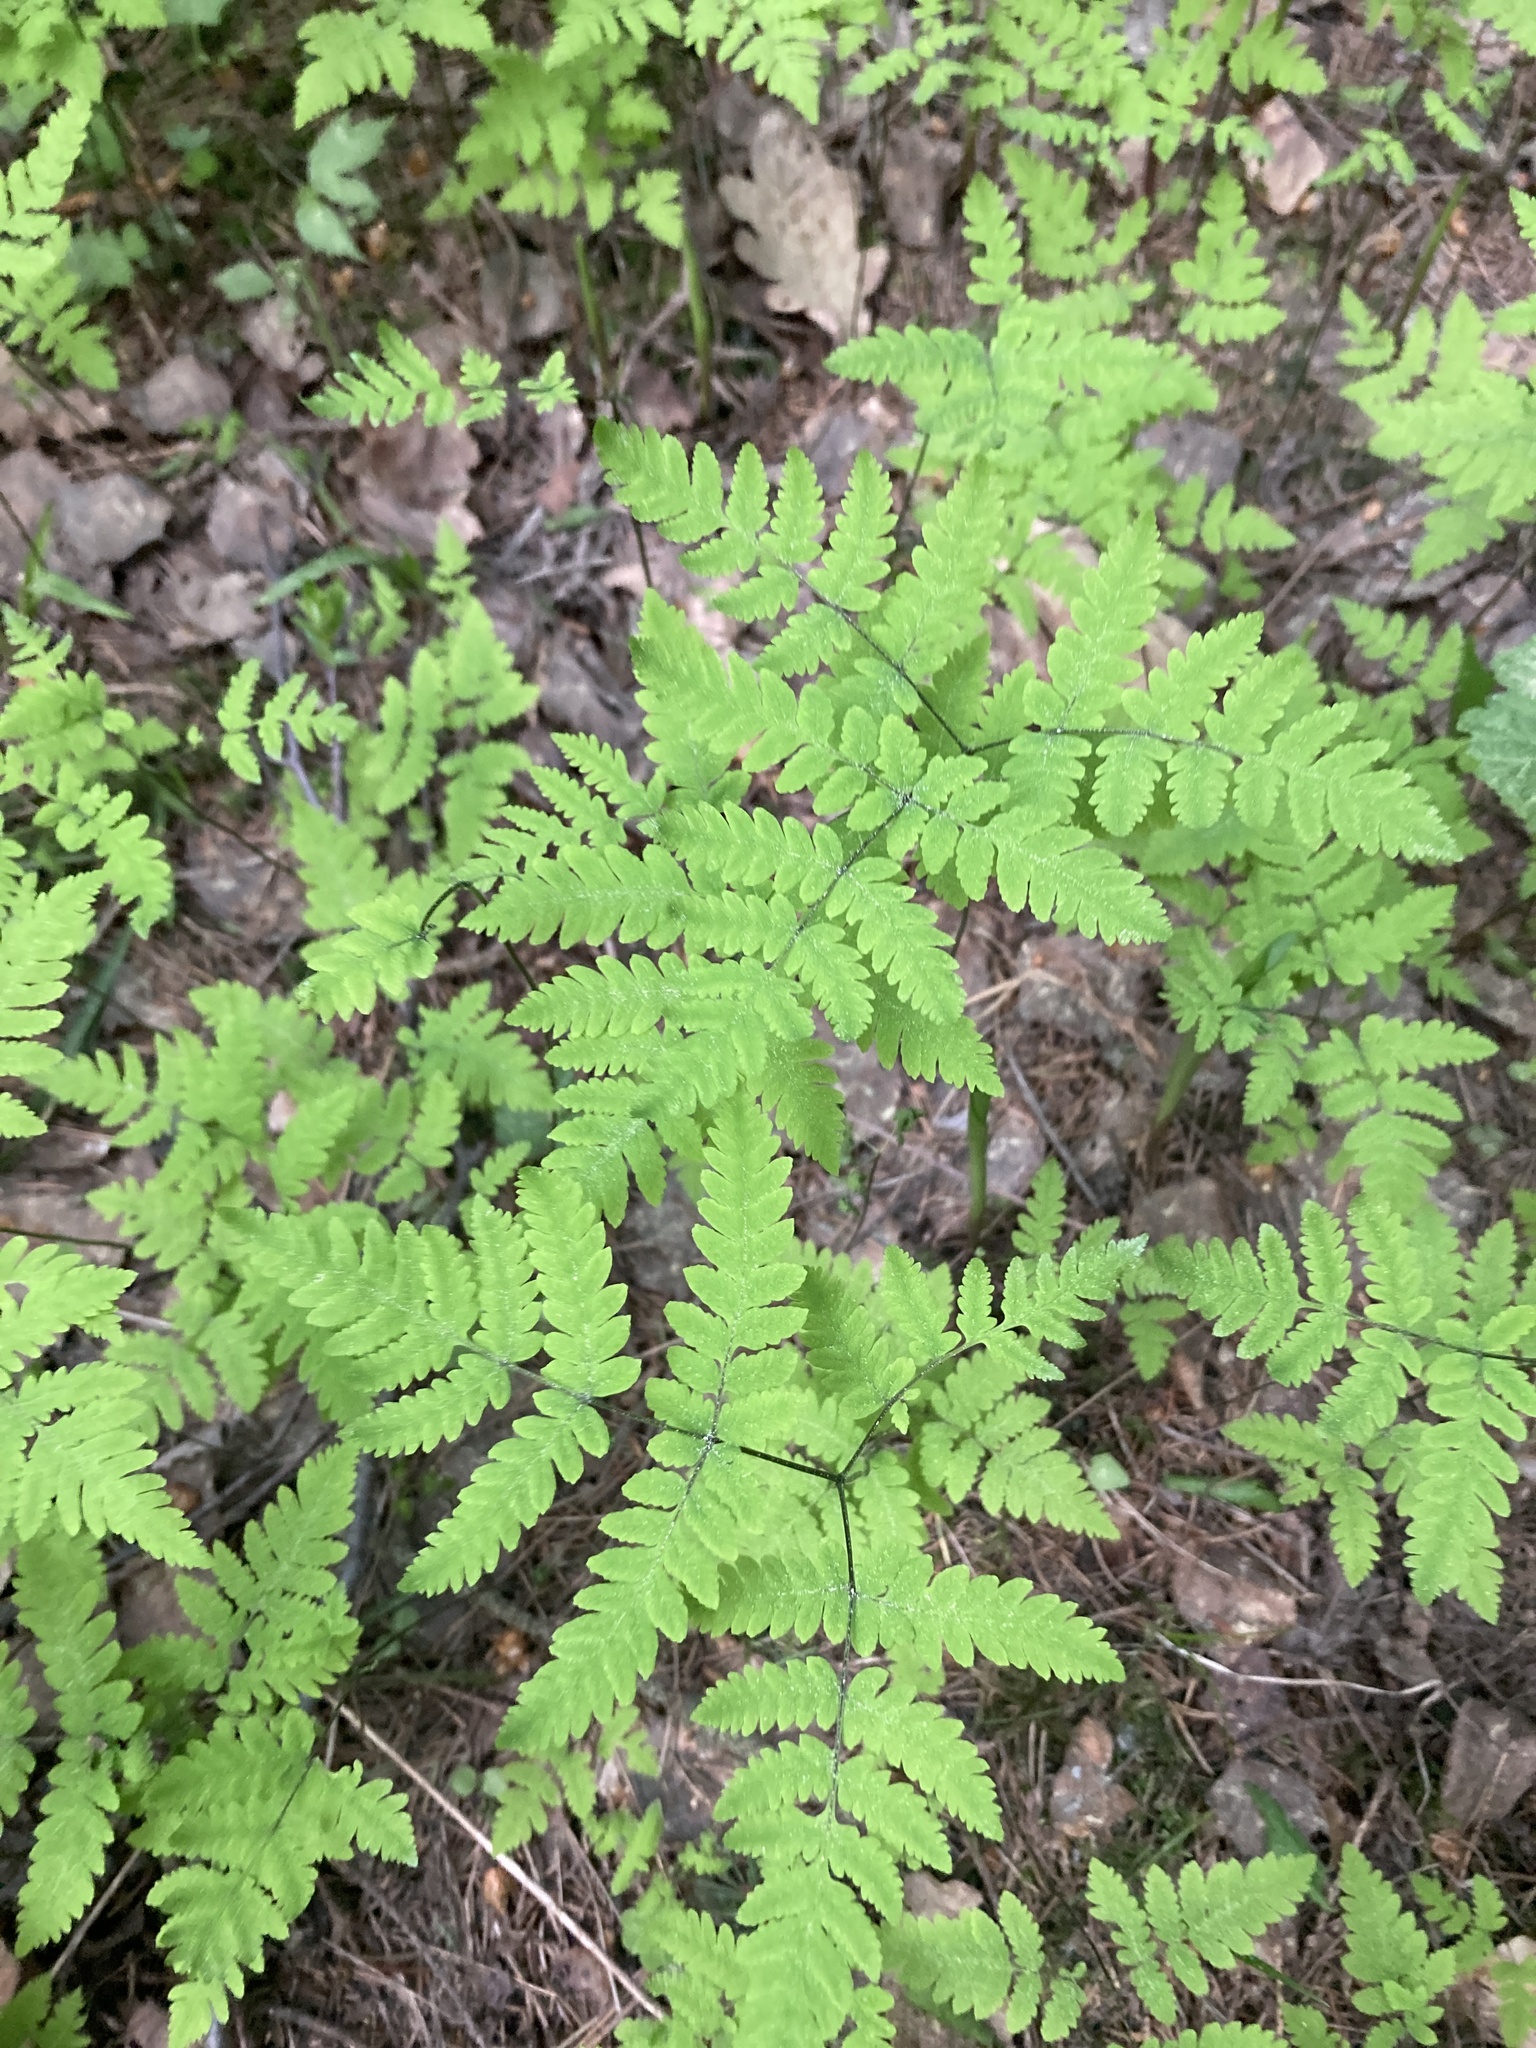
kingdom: Plantae
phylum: Tracheophyta
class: Polypodiopsida
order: Polypodiales
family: Cystopteridaceae
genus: Gymnocarpium
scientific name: Gymnocarpium dryopteris
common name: Oak fern
